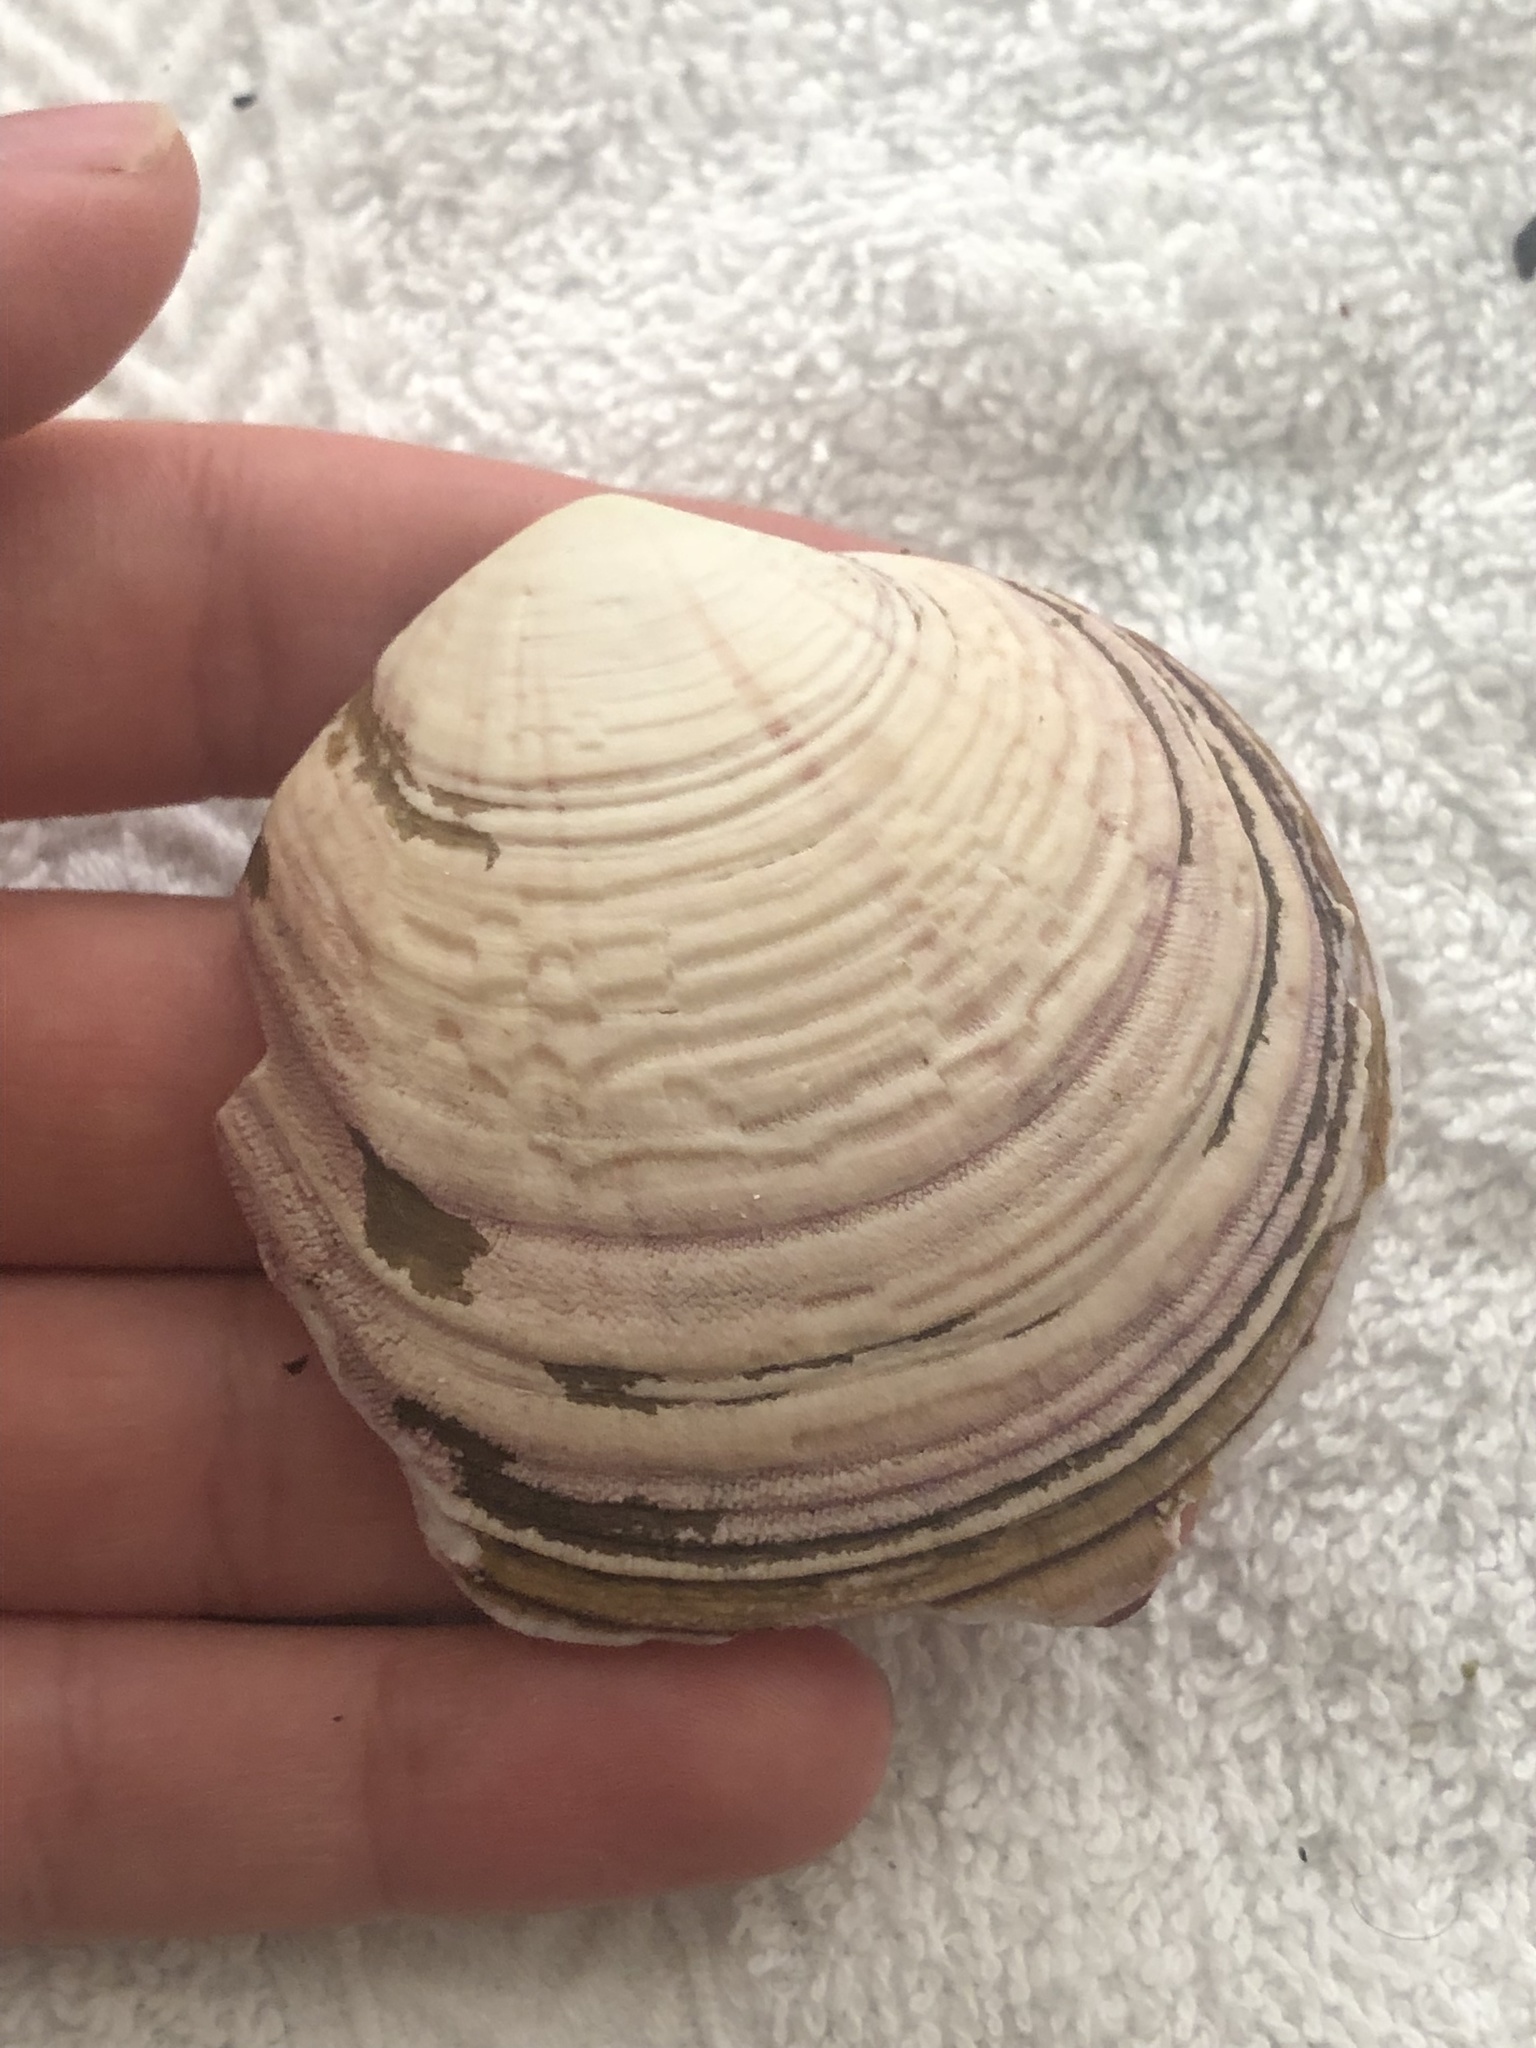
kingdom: Animalia
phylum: Mollusca
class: Bivalvia
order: Cardiida
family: Semelidae
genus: Semele
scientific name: Semele decisa
